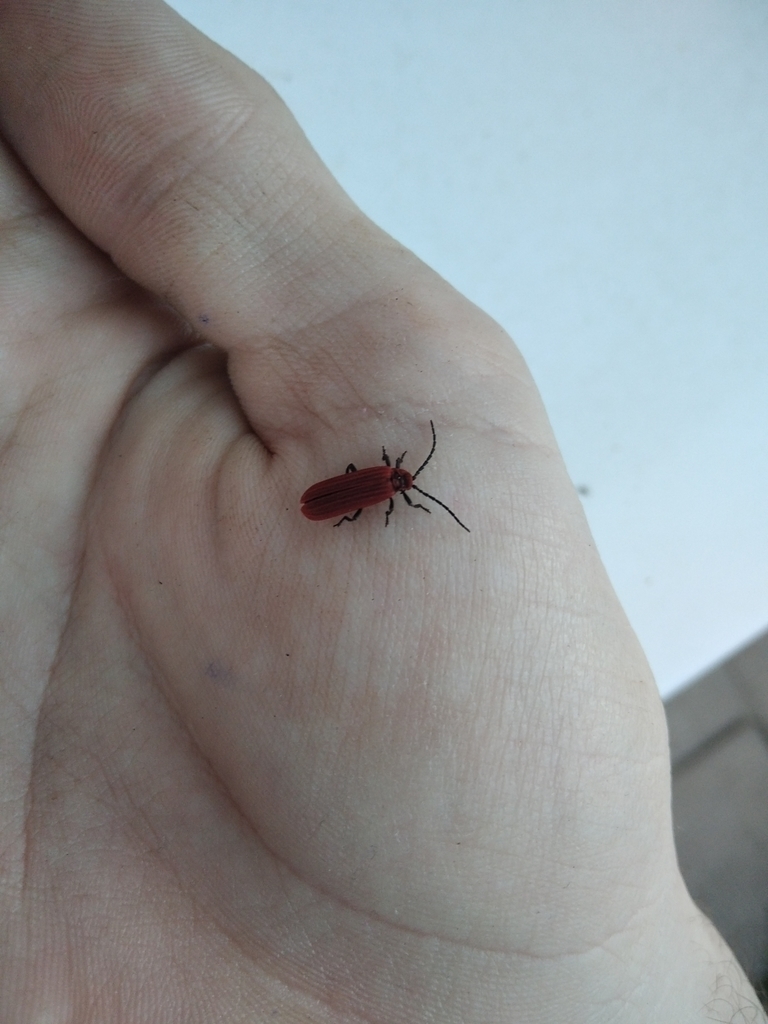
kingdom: Animalia
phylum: Arthropoda
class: Insecta
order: Coleoptera
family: Lycidae
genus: Dictyoptera
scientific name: Dictyoptera aurora
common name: Golden net-winged beetle
